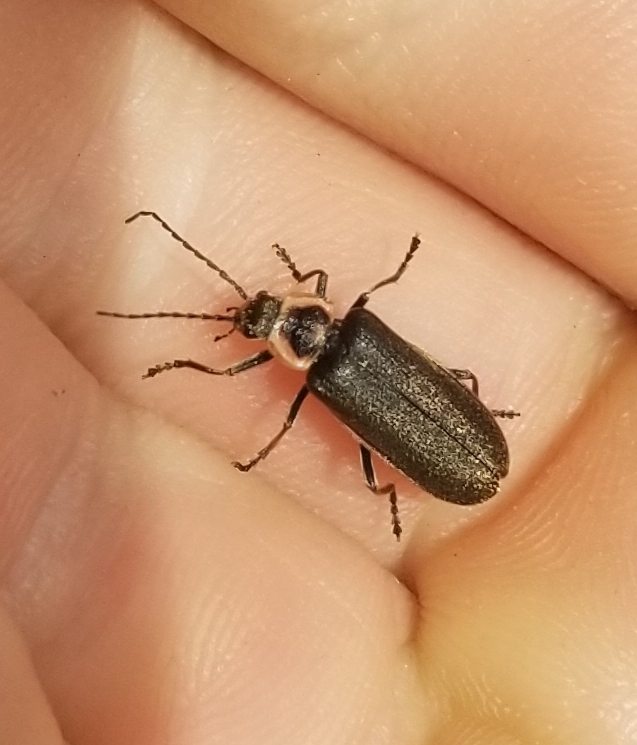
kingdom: Animalia
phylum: Arthropoda
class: Insecta
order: Coleoptera
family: Cantharidae
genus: Atalantycha
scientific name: Atalantycha dentigera
